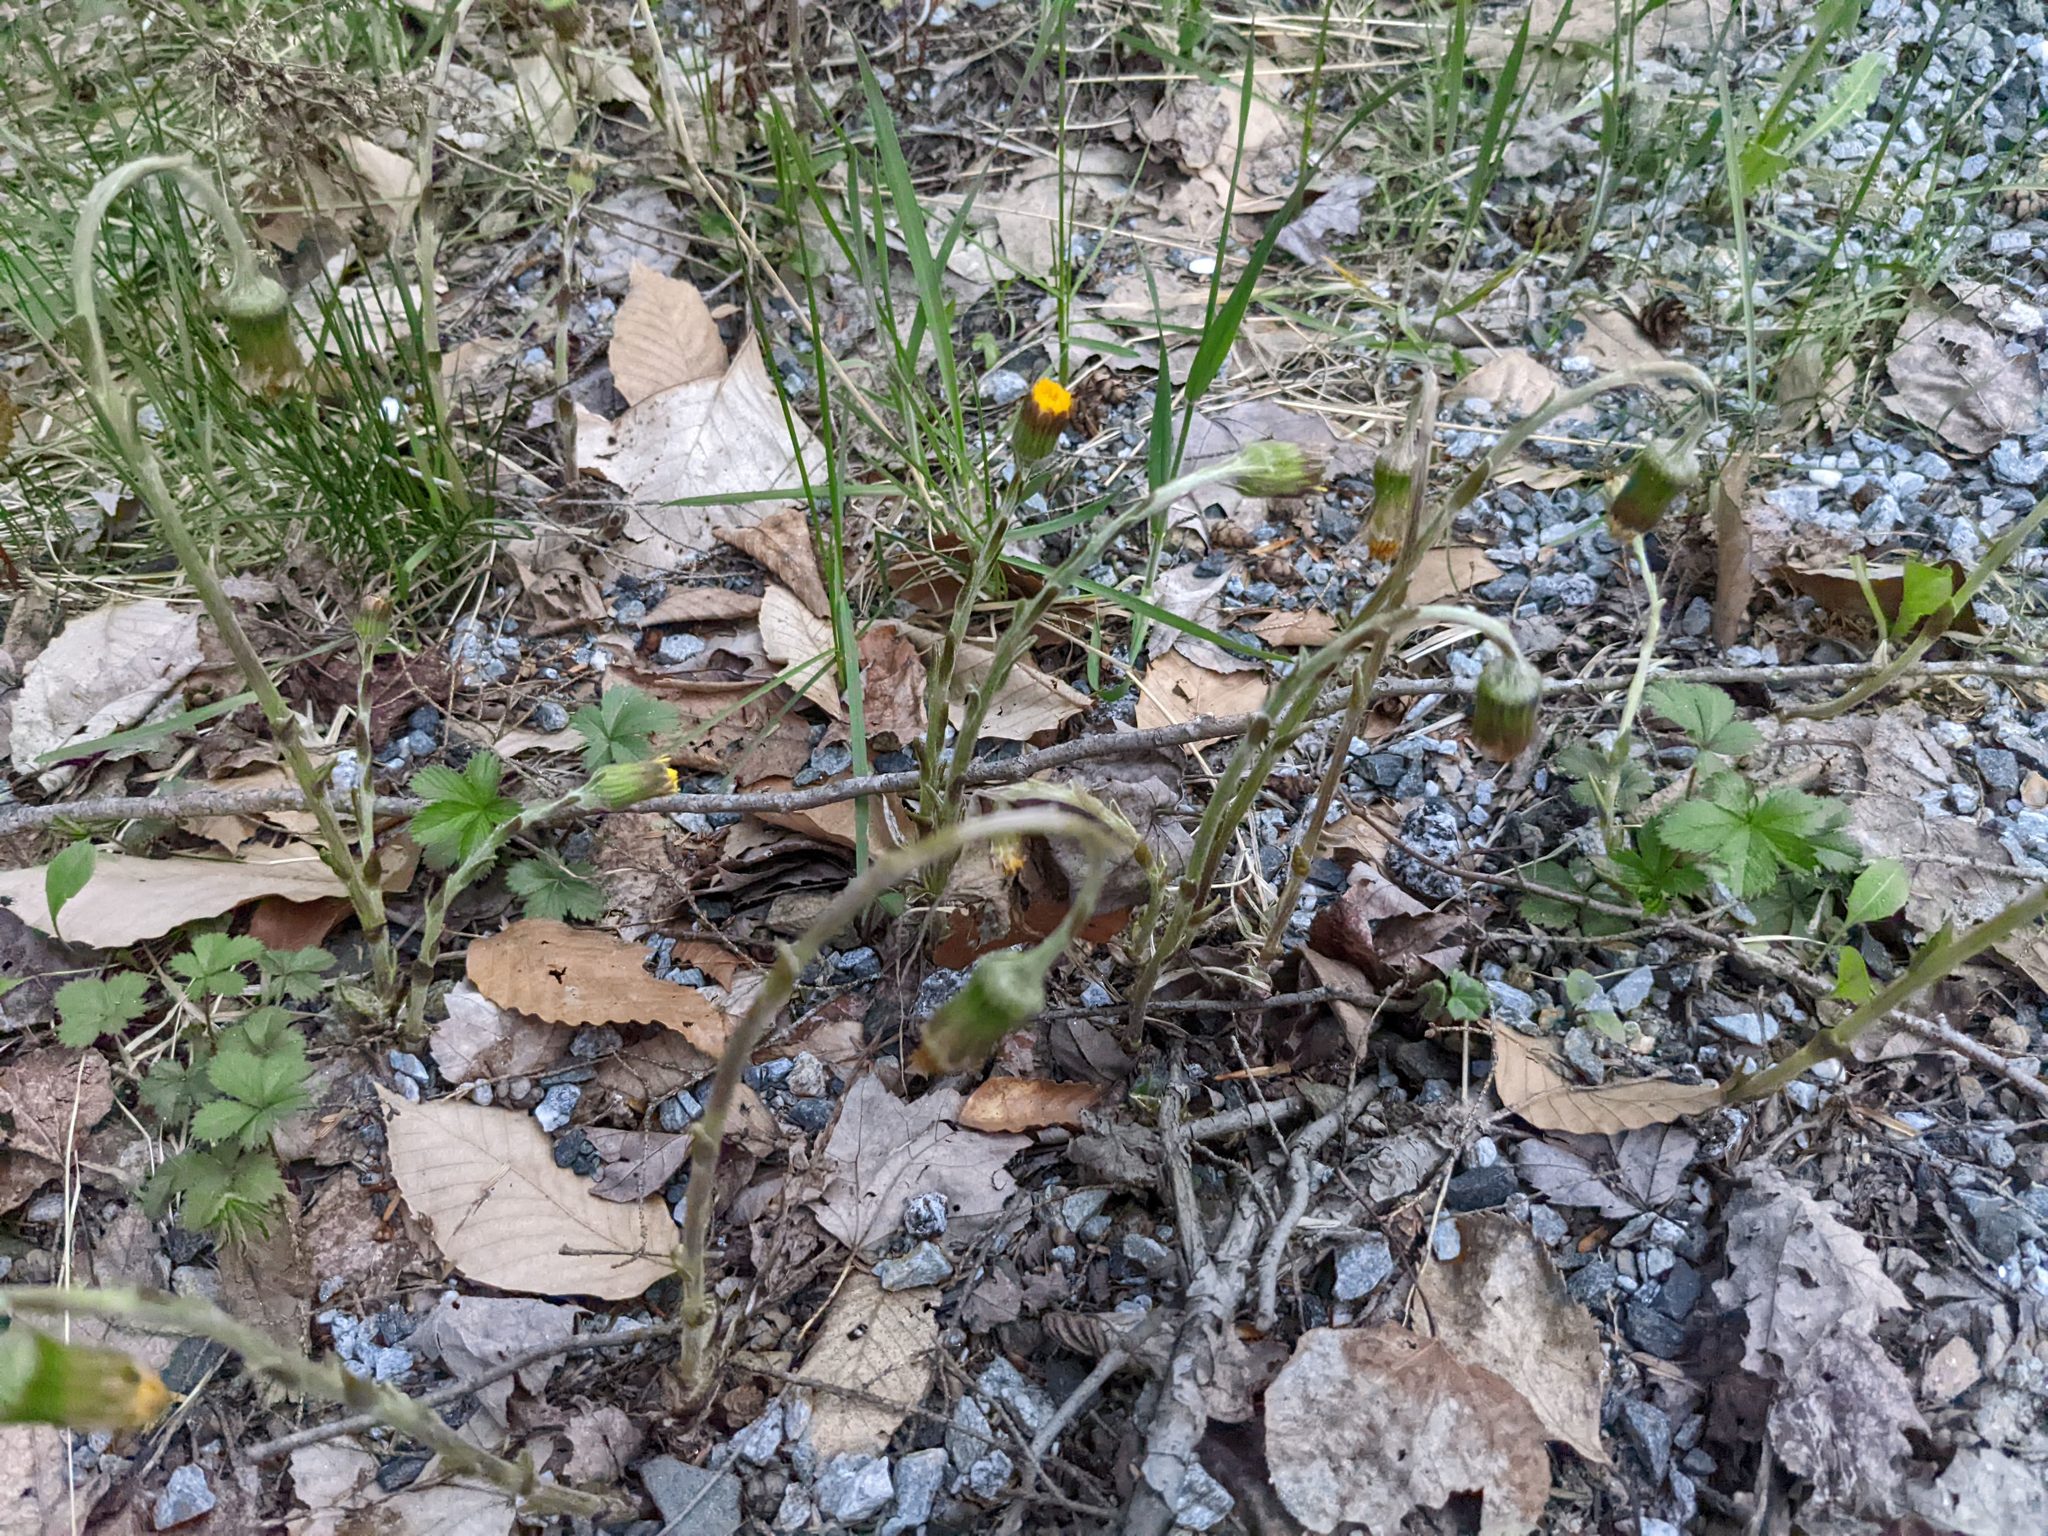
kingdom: Plantae
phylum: Tracheophyta
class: Magnoliopsida
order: Asterales
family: Asteraceae
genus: Tussilago
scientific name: Tussilago farfara
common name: Coltsfoot
